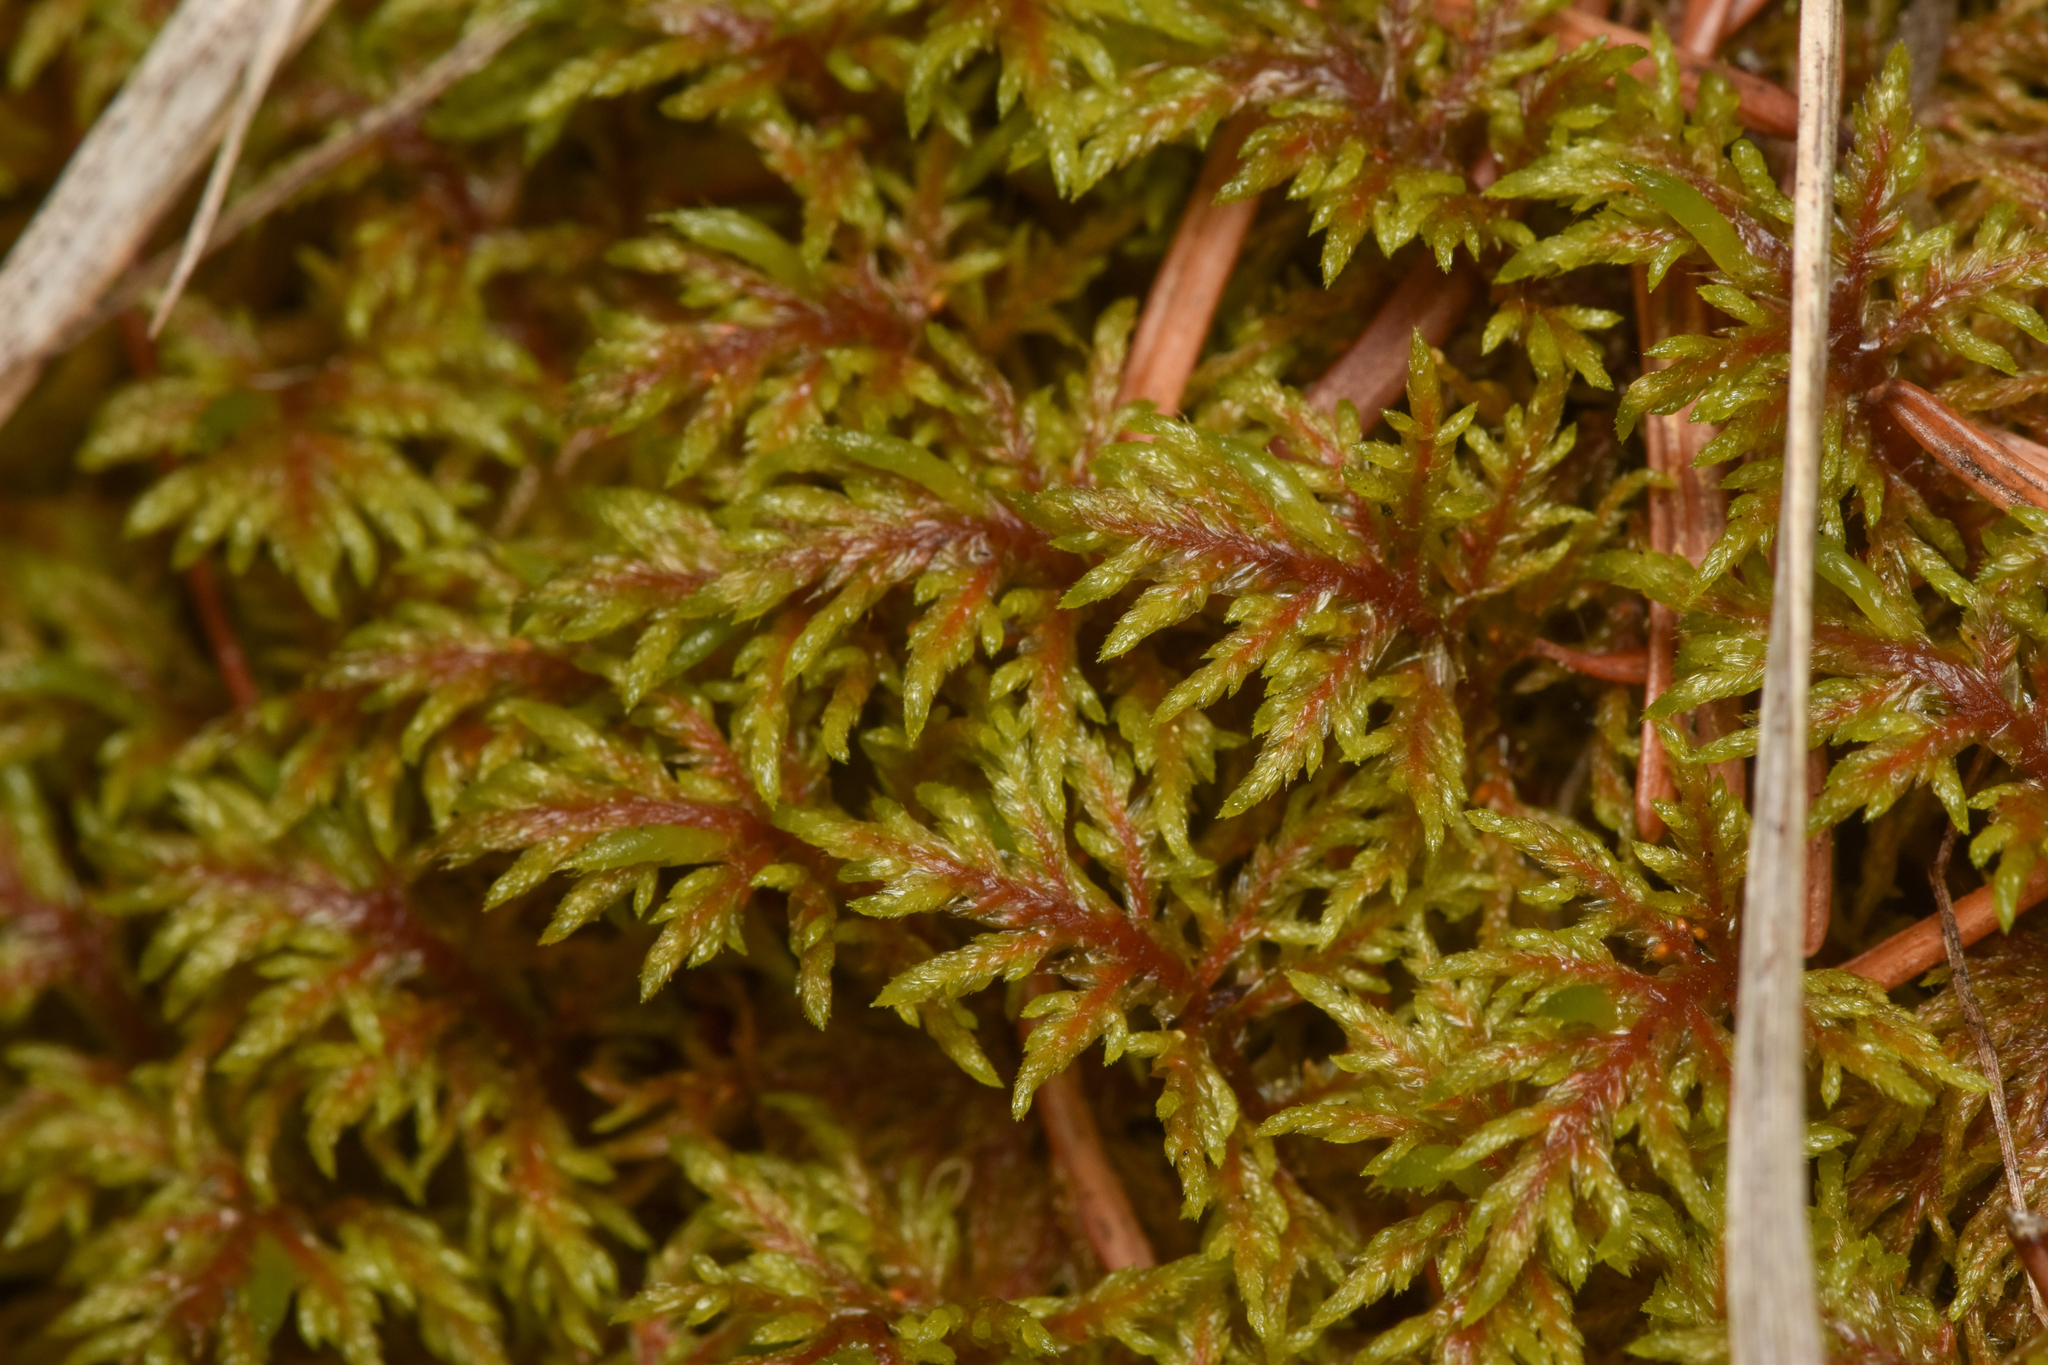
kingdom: Plantae
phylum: Bryophyta
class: Bryopsida
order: Hypnales
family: Hylocomiaceae
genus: Pleurozium
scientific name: Pleurozium schreberi
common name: Red-stemmed feather moss
